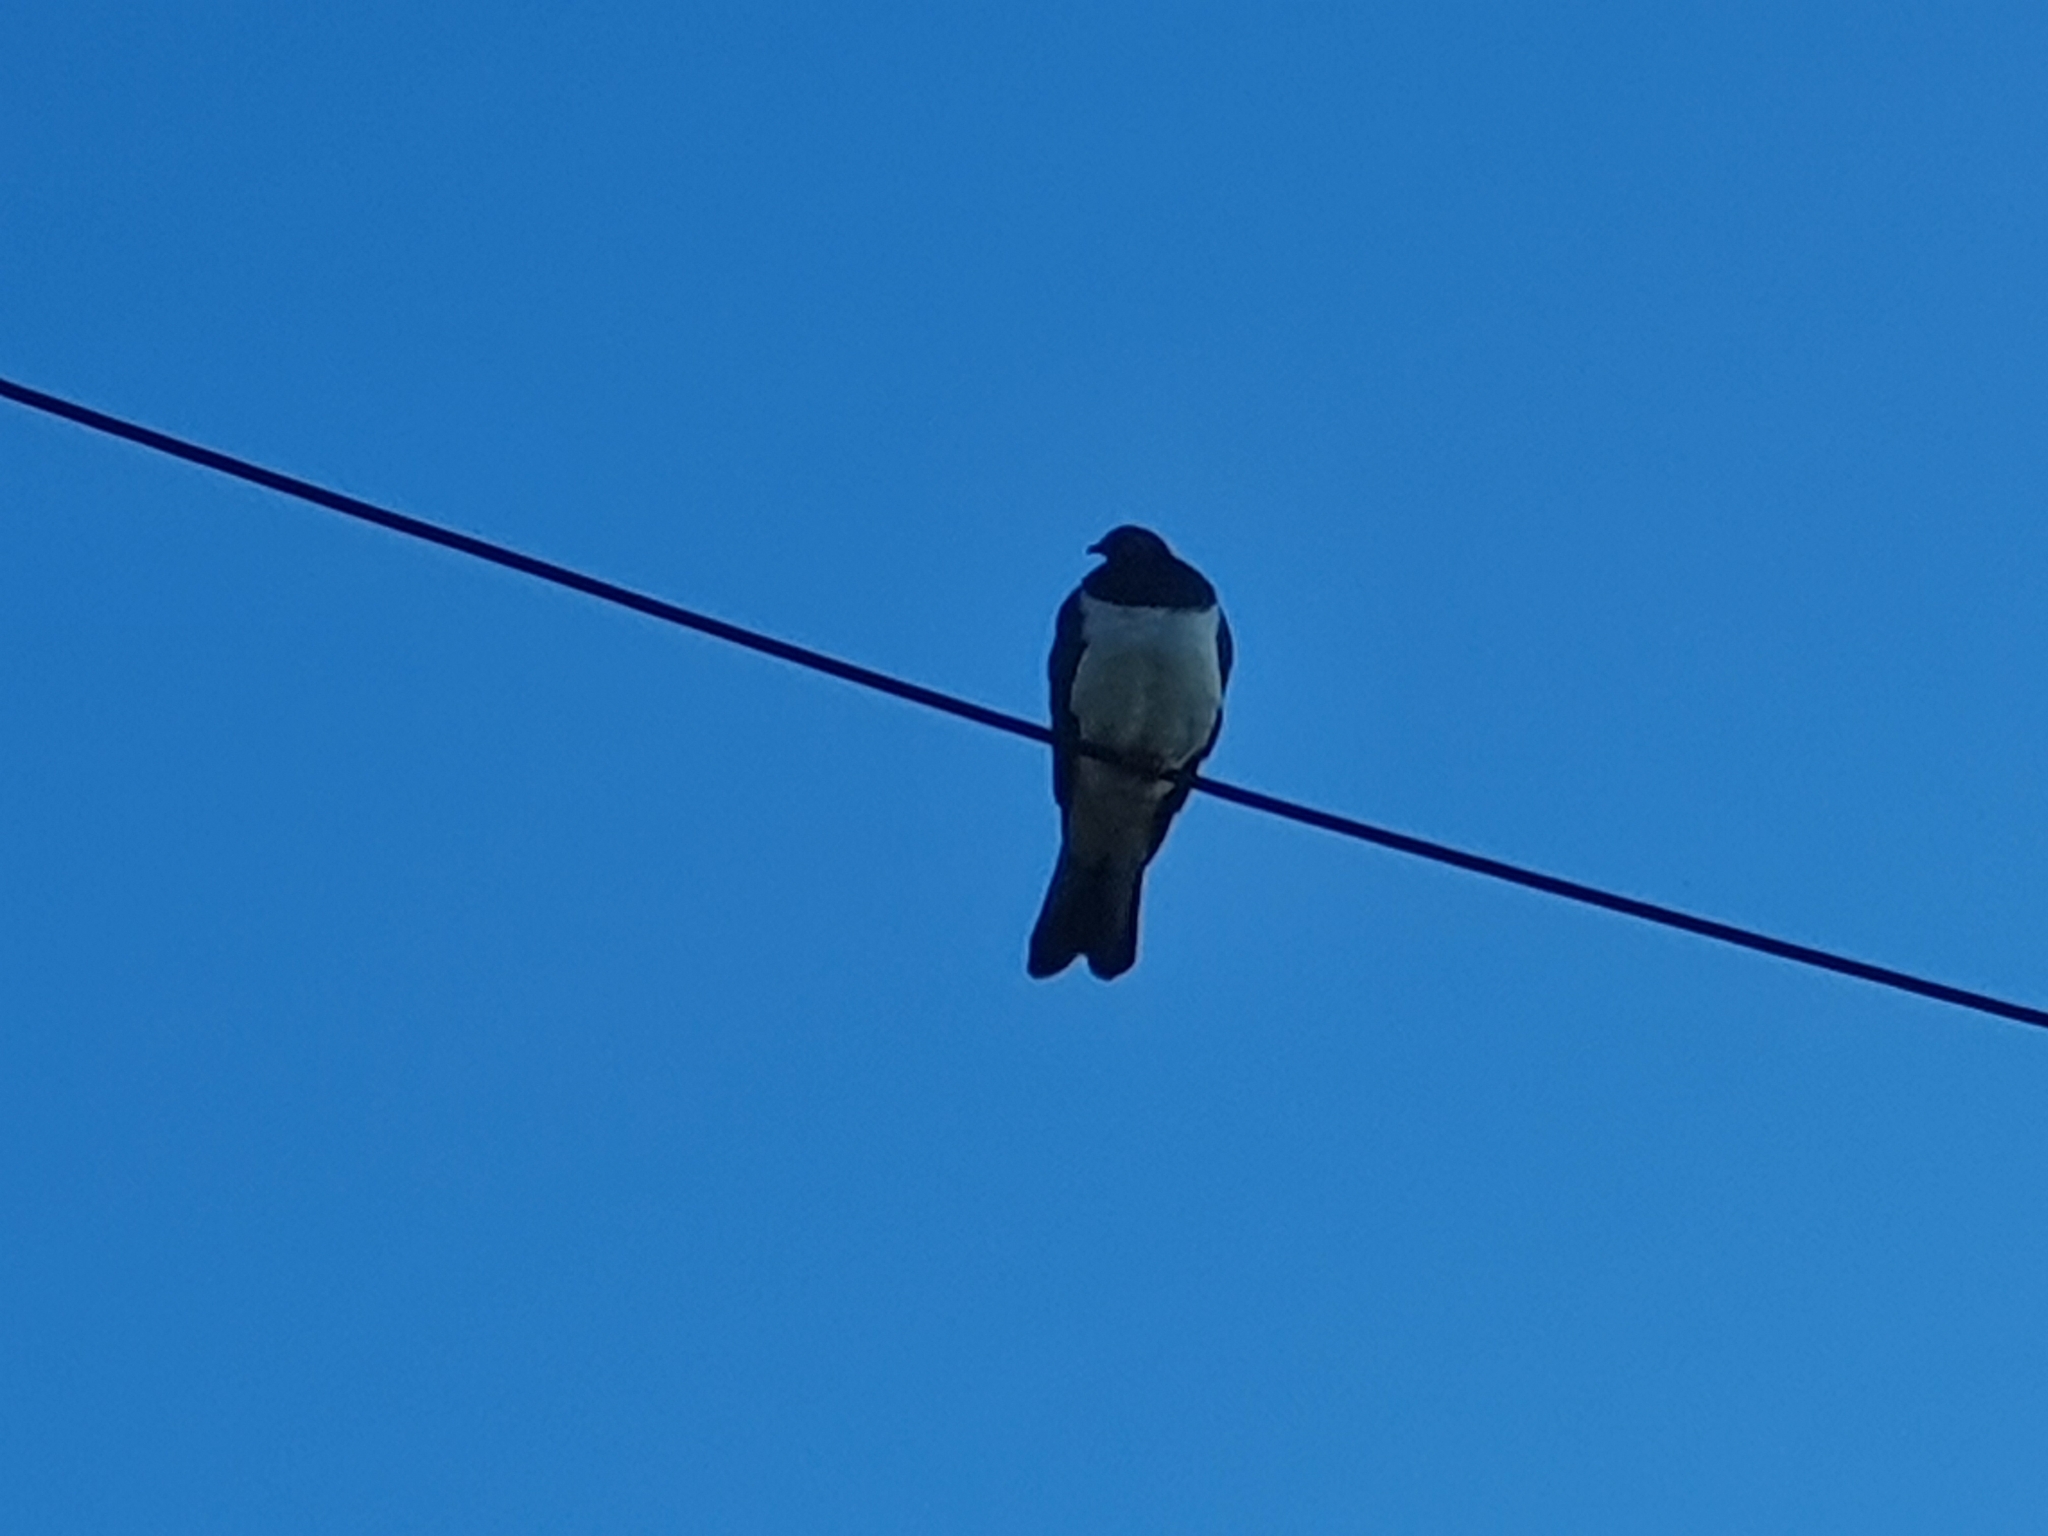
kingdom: Animalia
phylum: Chordata
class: Aves
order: Columbiformes
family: Columbidae
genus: Hemiphaga
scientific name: Hemiphaga novaeseelandiae
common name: New zealand pigeon
